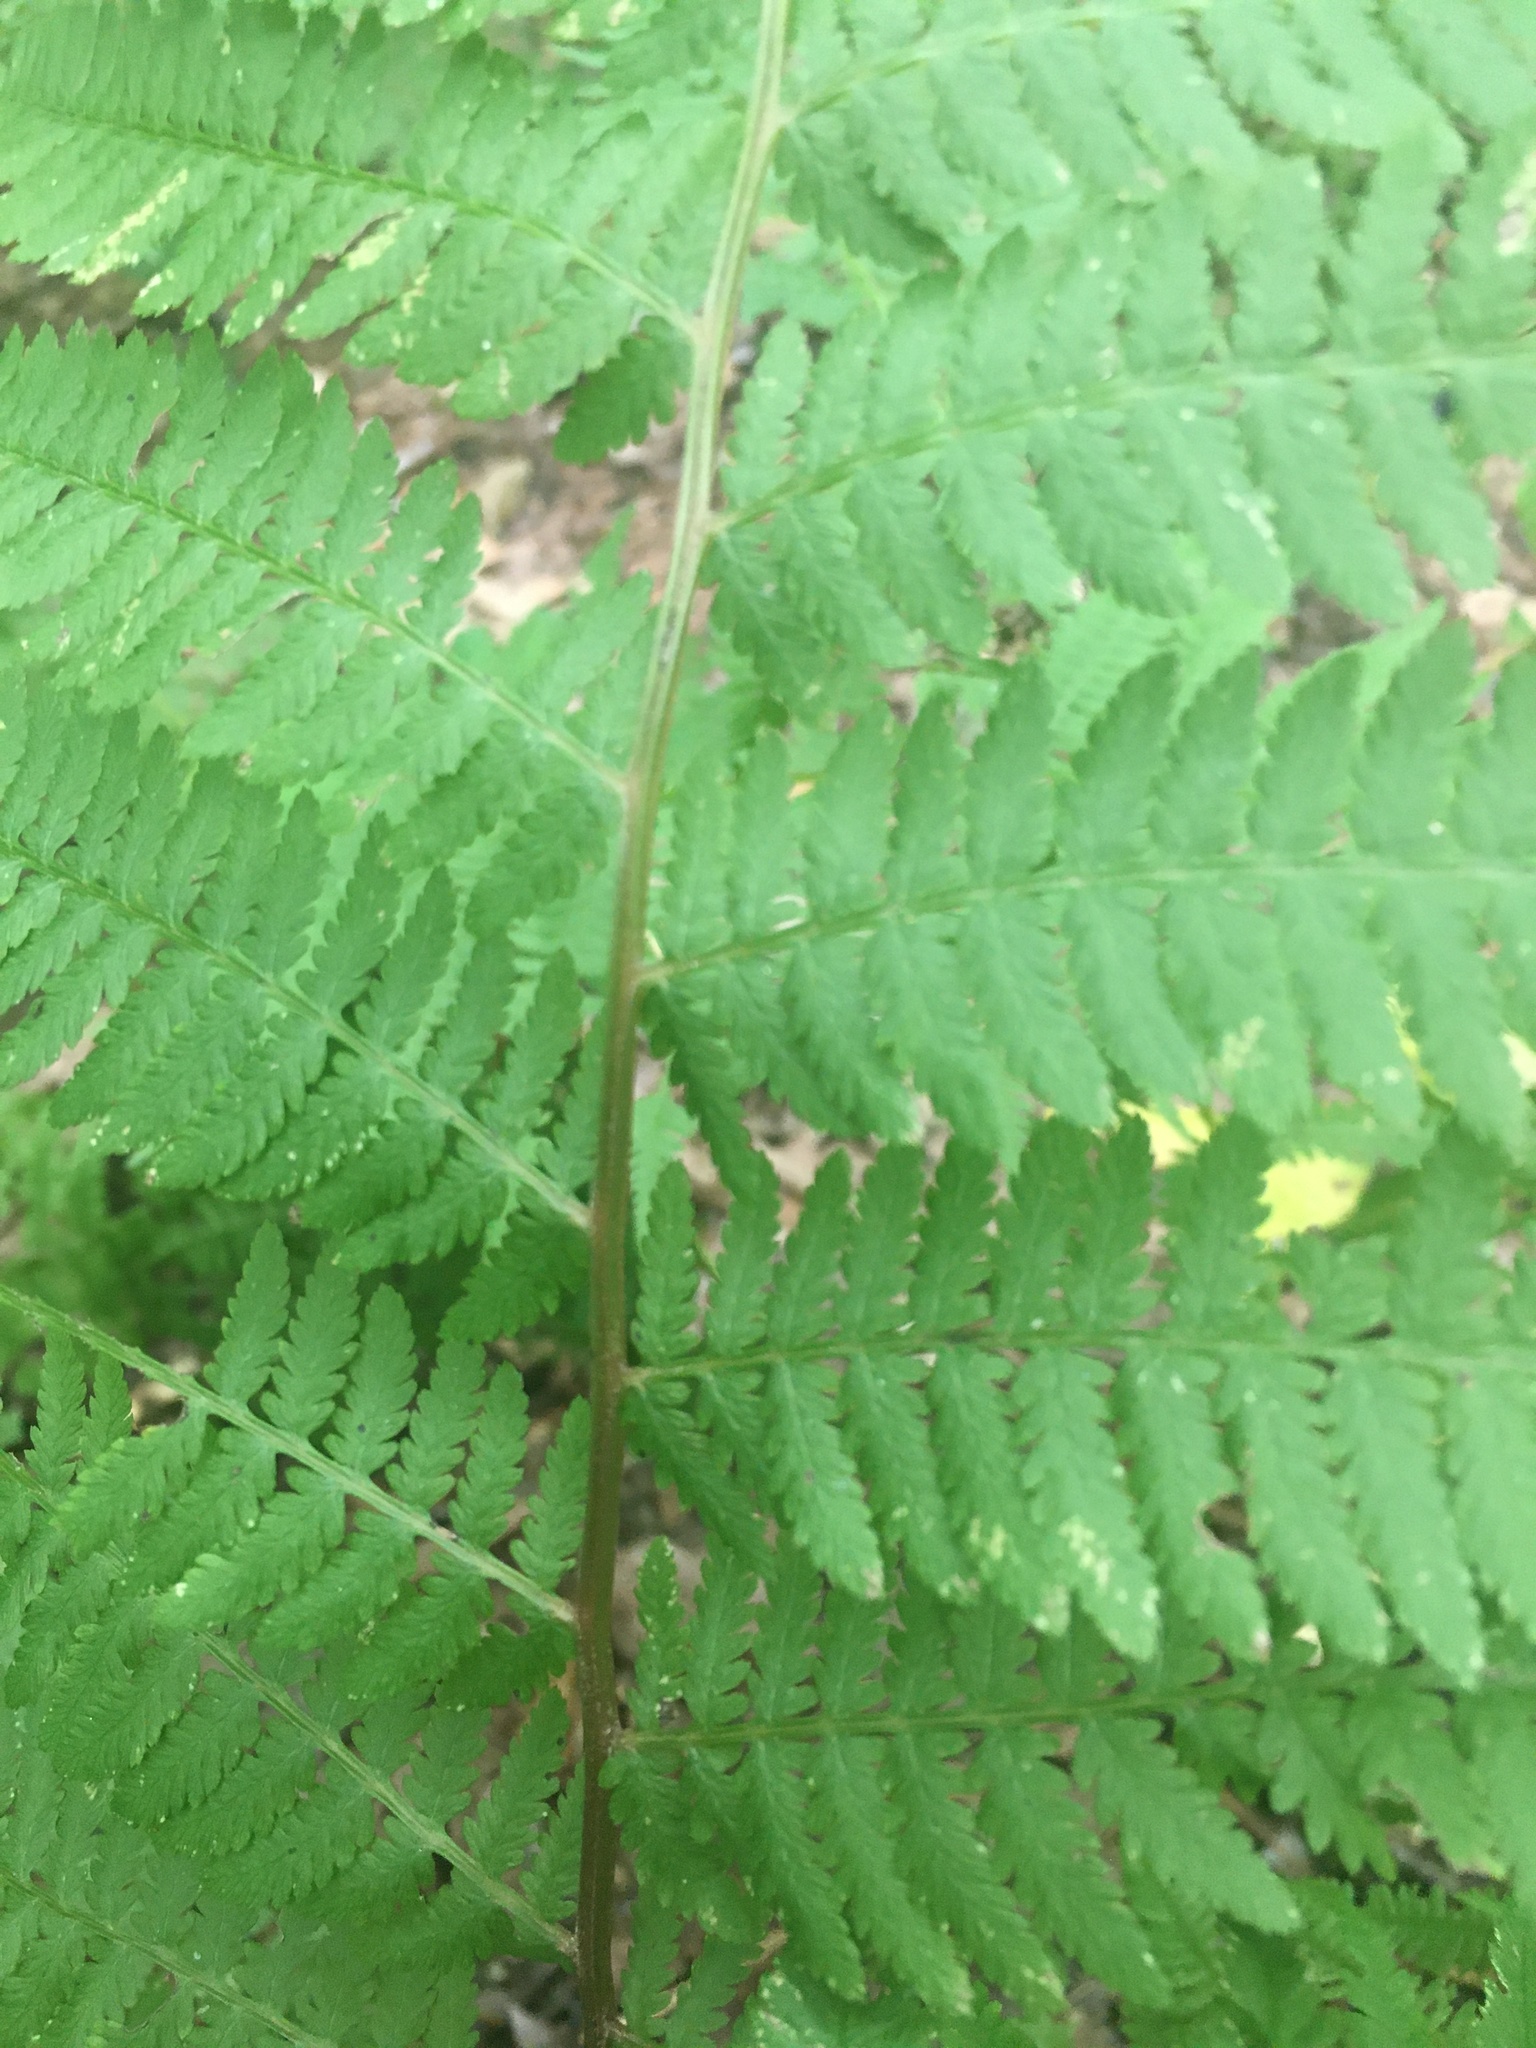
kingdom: Plantae
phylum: Tracheophyta
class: Polypodiopsida
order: Polypodiales
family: Athyriaceae
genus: Athyrium
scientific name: Athyrium angustum
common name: Northern lady fern
